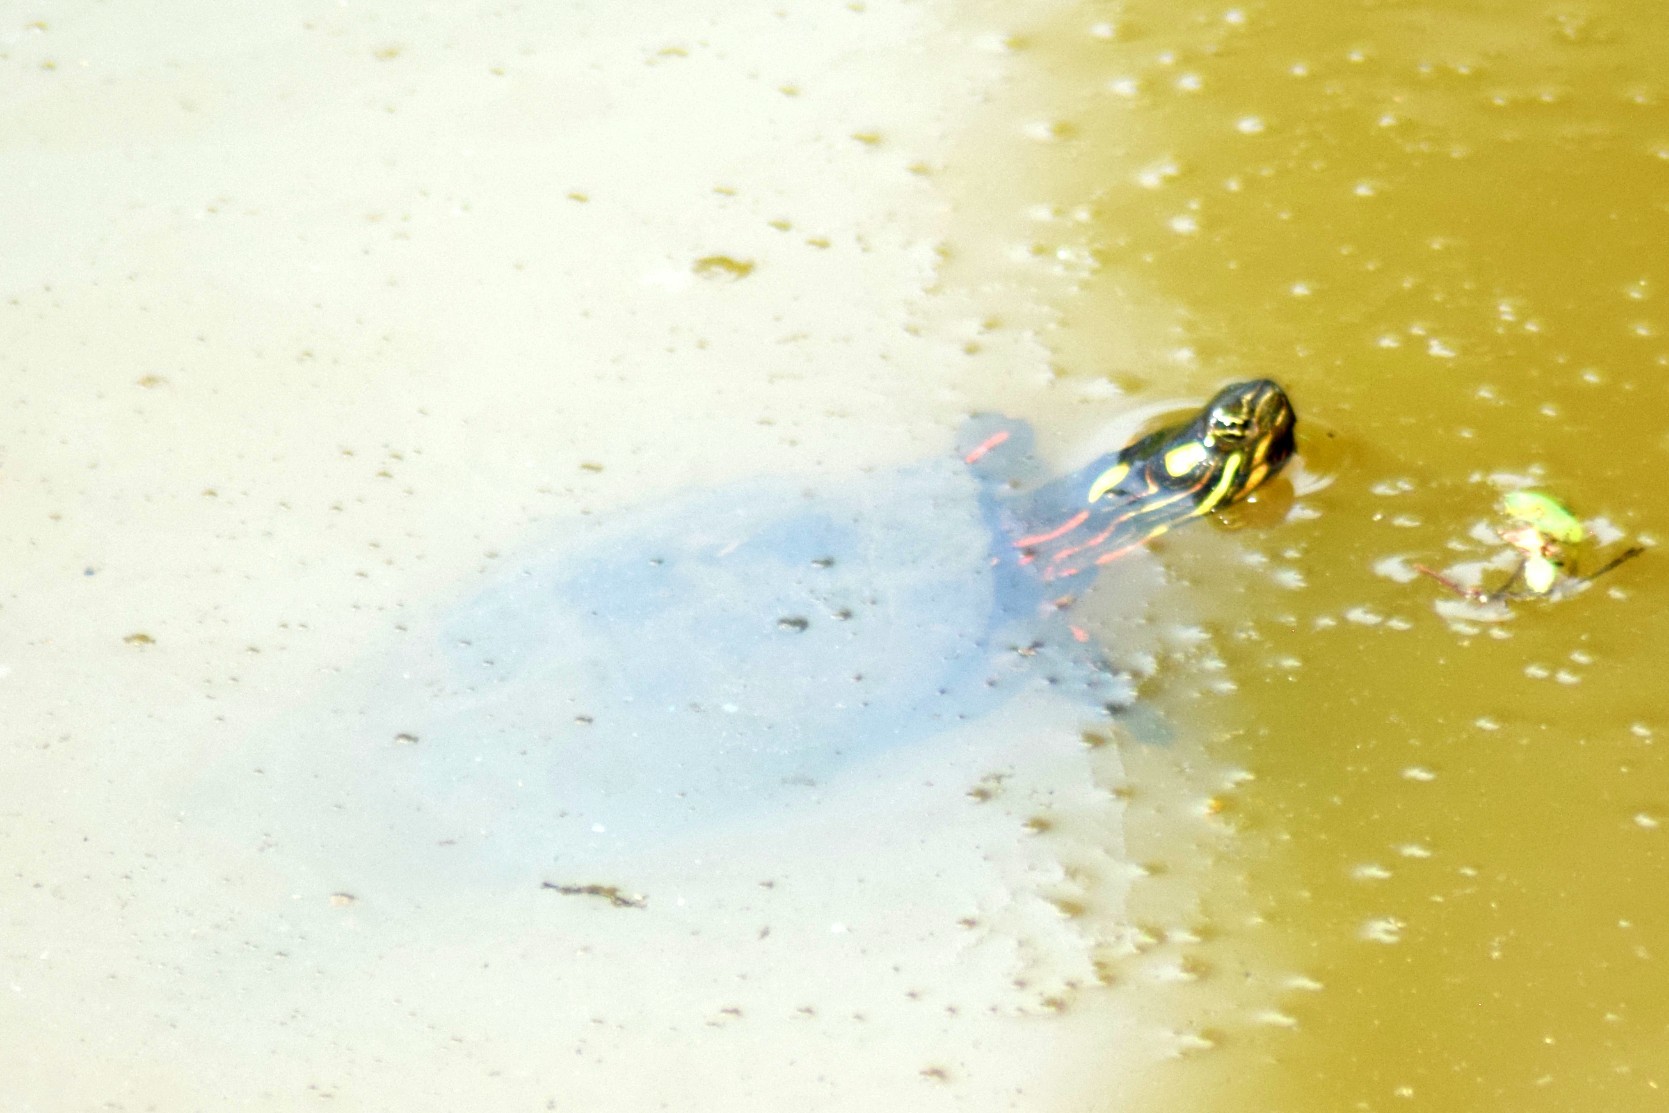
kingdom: Animalia
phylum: Chordata
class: Testudines
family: Emydidae
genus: Chrysemys
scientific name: Chrysemys picta
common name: Painted turtle
